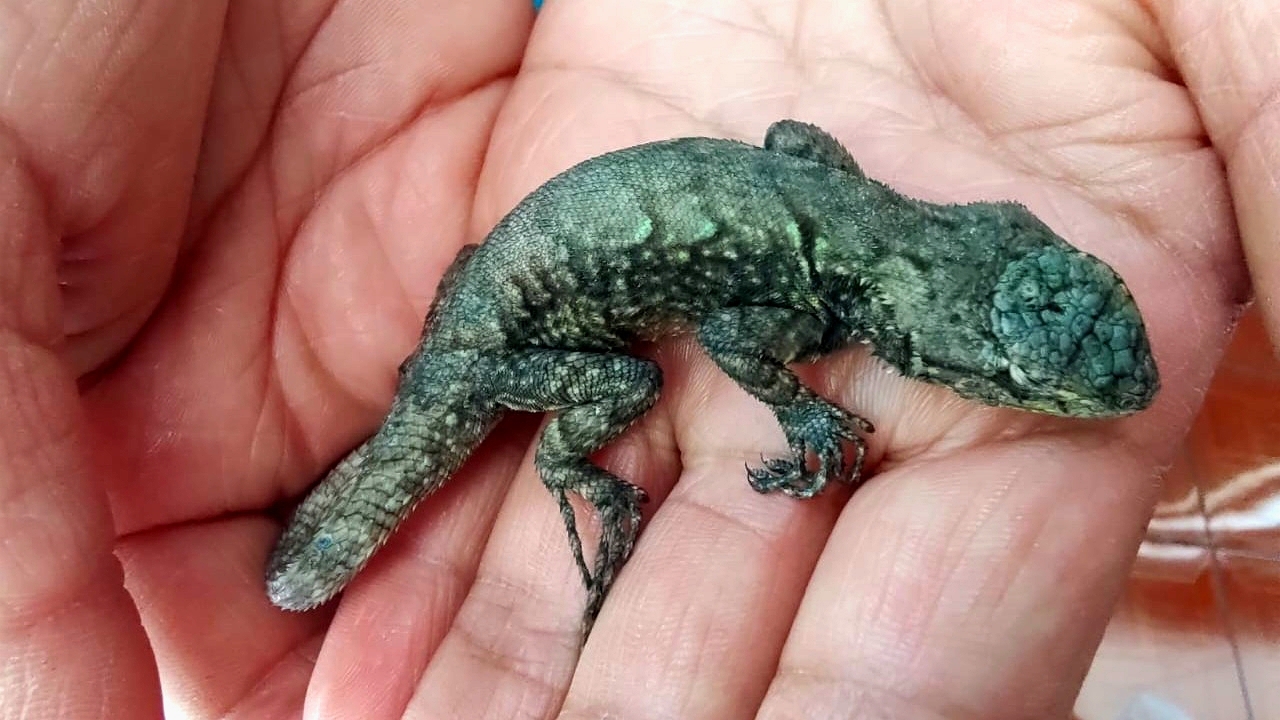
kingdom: Animalia
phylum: Chordata
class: Squamata
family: Phrynosomatidae
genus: Sceloporus
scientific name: Sceloporus grammicus
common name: Mesquite lizard
